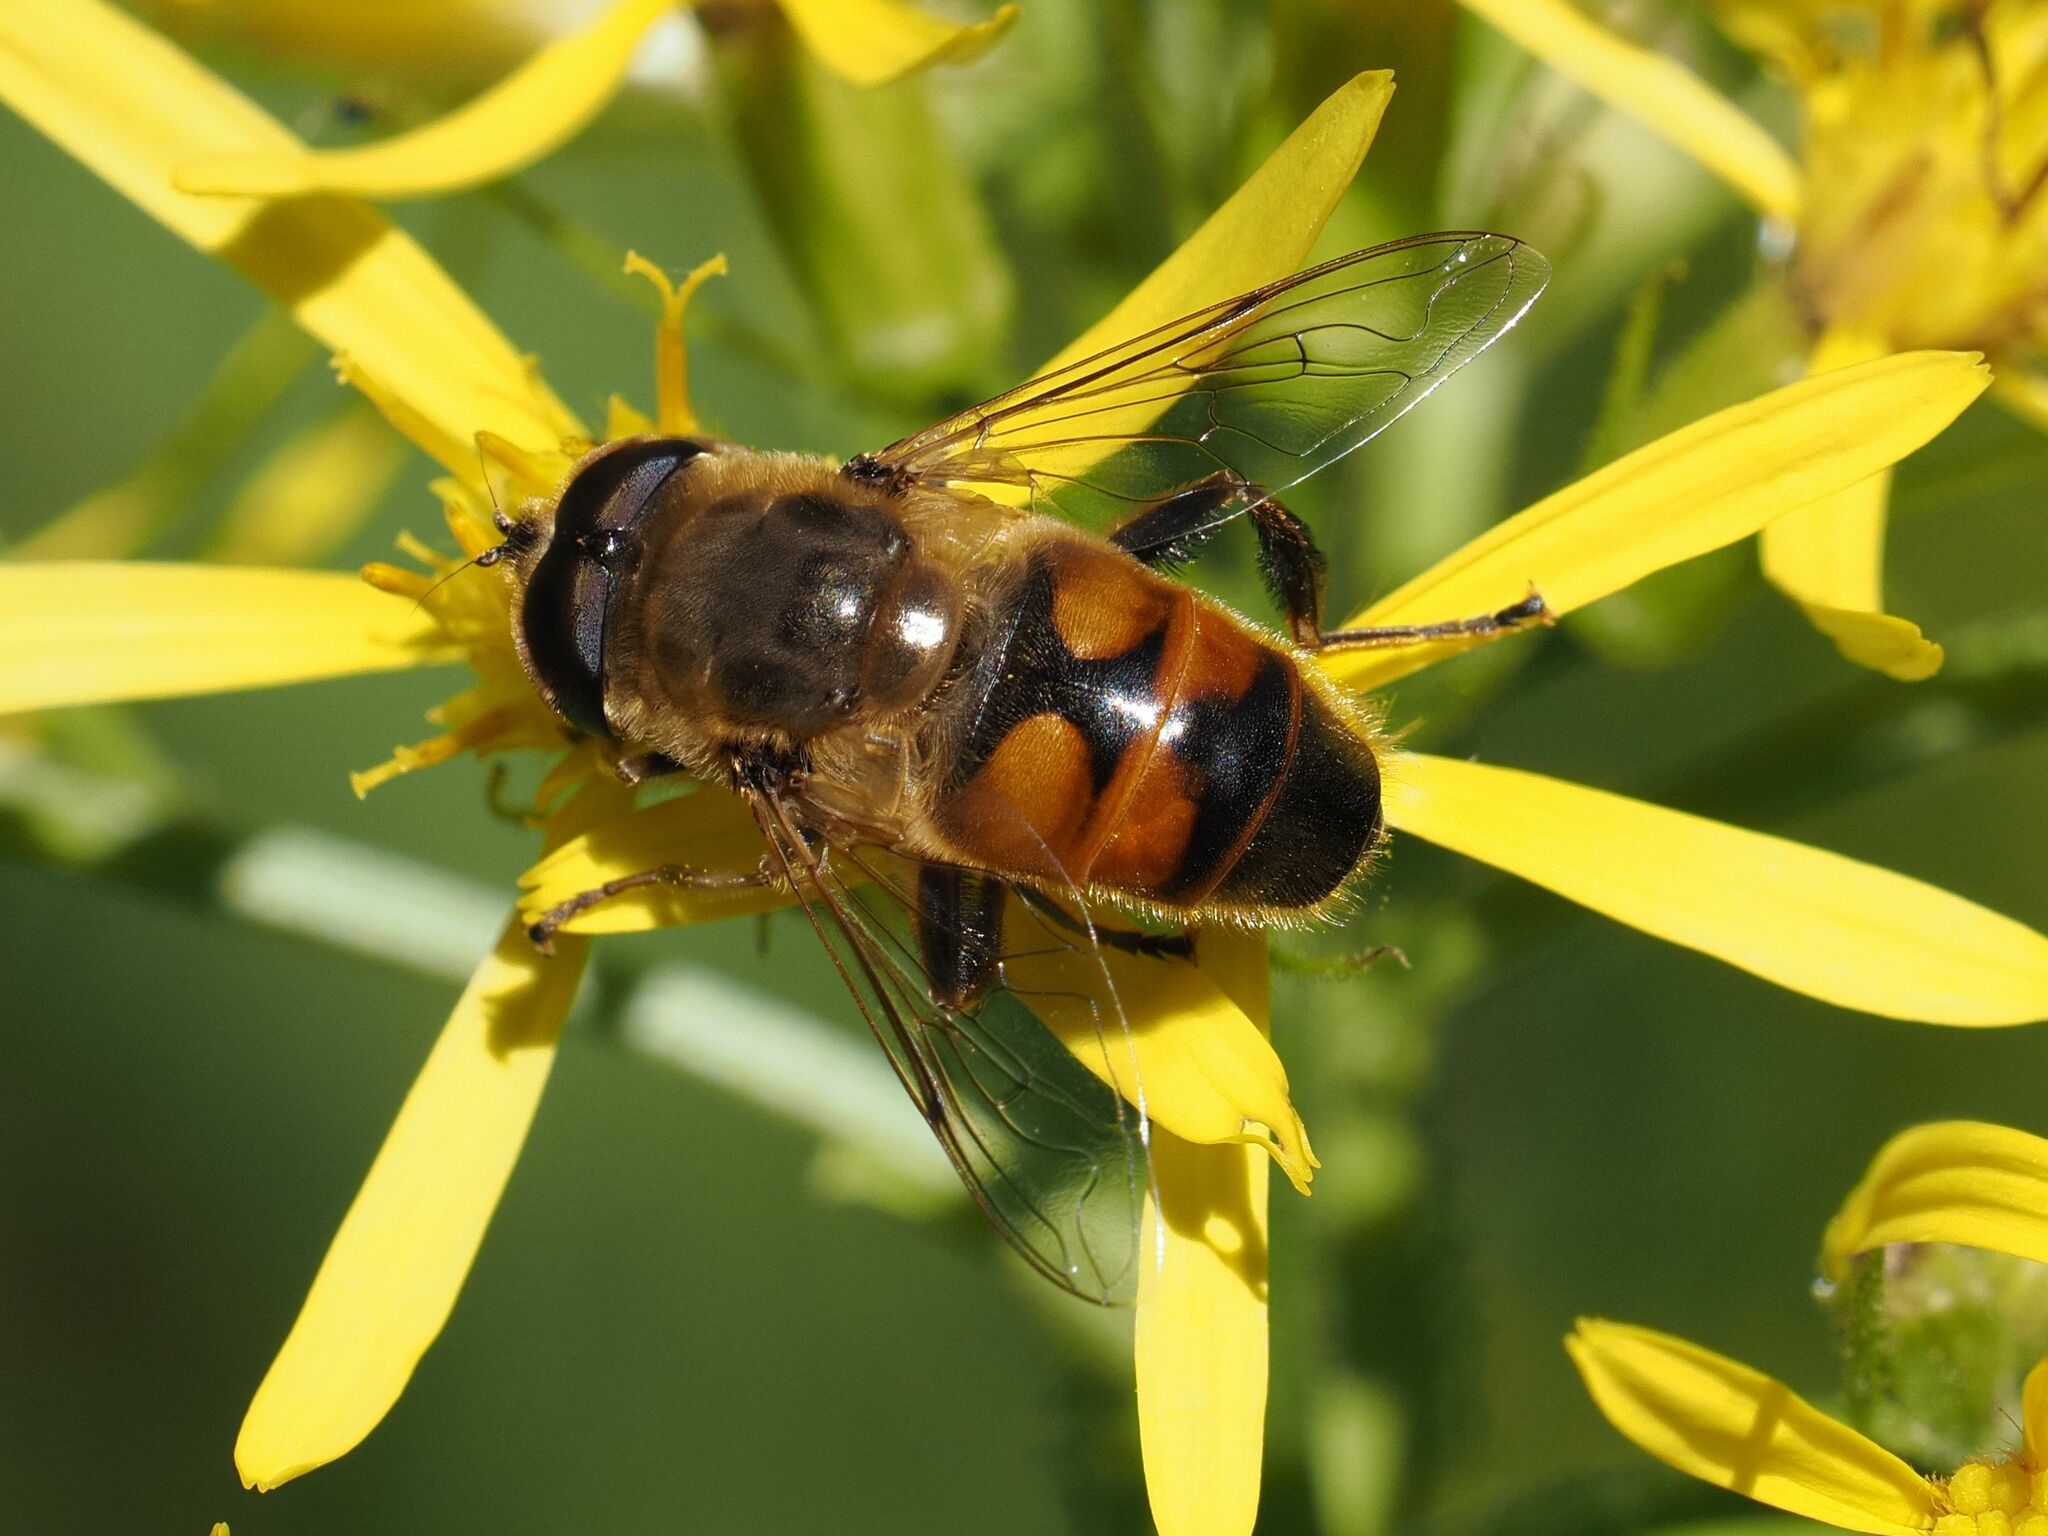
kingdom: Animalia
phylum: Arthropoda
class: Insecta
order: Diptera
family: Syrphidae
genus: Eristalis
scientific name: Eristalis tenax
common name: Drone fly
